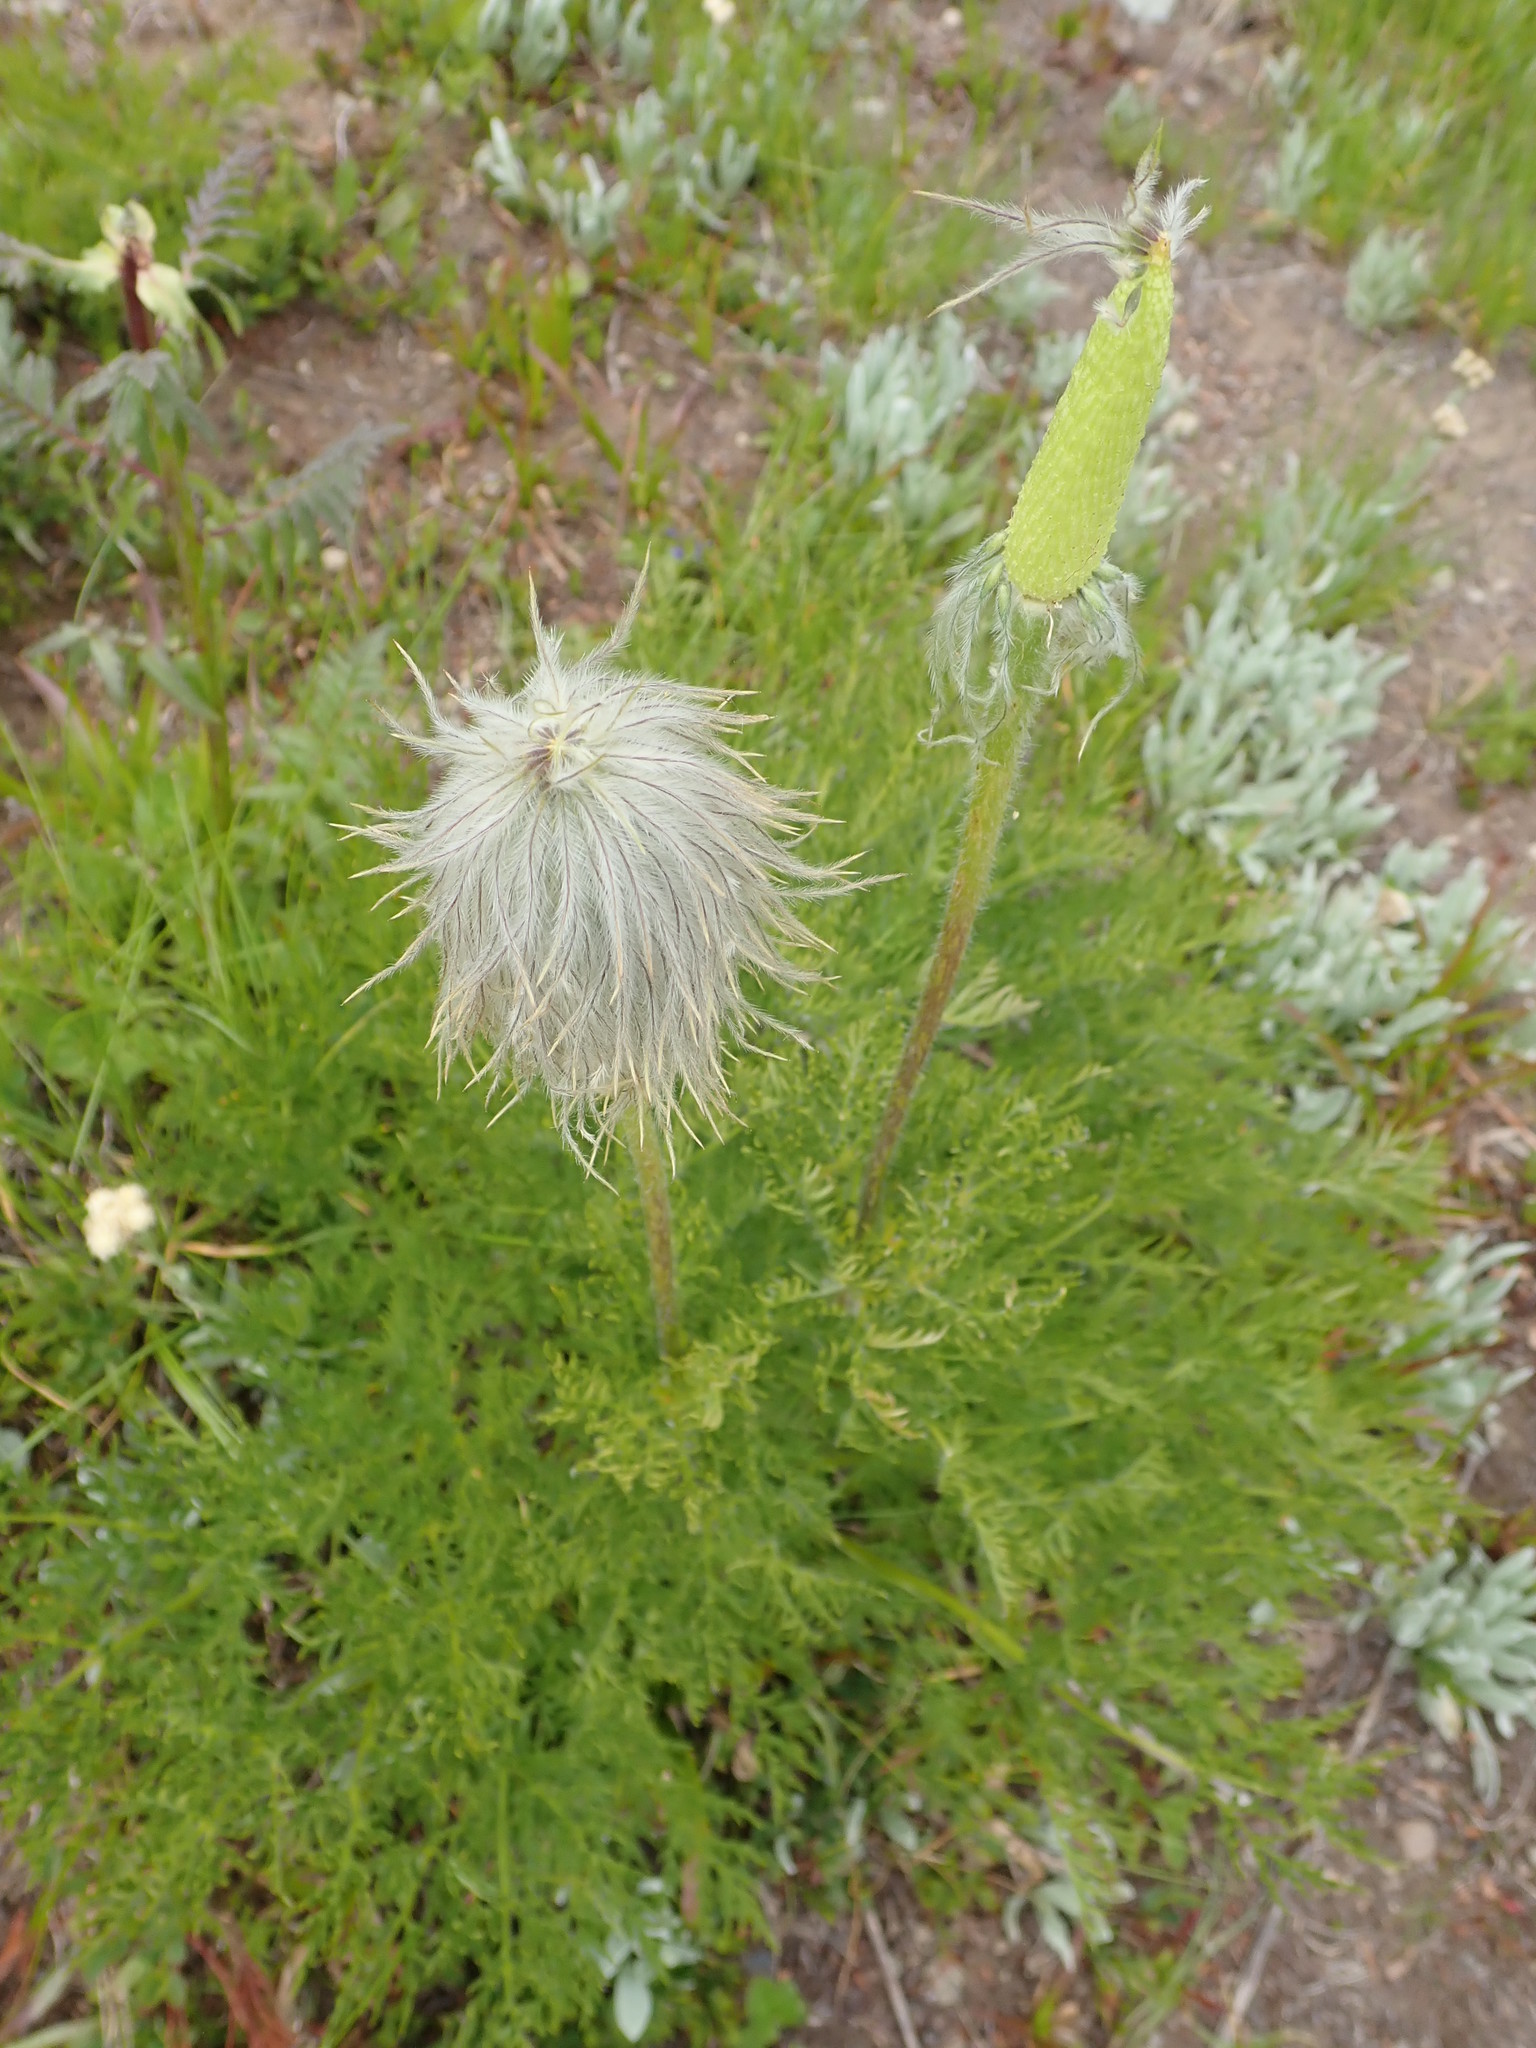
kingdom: Plantae
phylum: Tracheophyta
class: Magnoliopsida
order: Ranunculales
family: Ranunculaceae
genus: Pulsatilla
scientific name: Pulsatilla occidentalis
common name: Mountain pasqueflower
